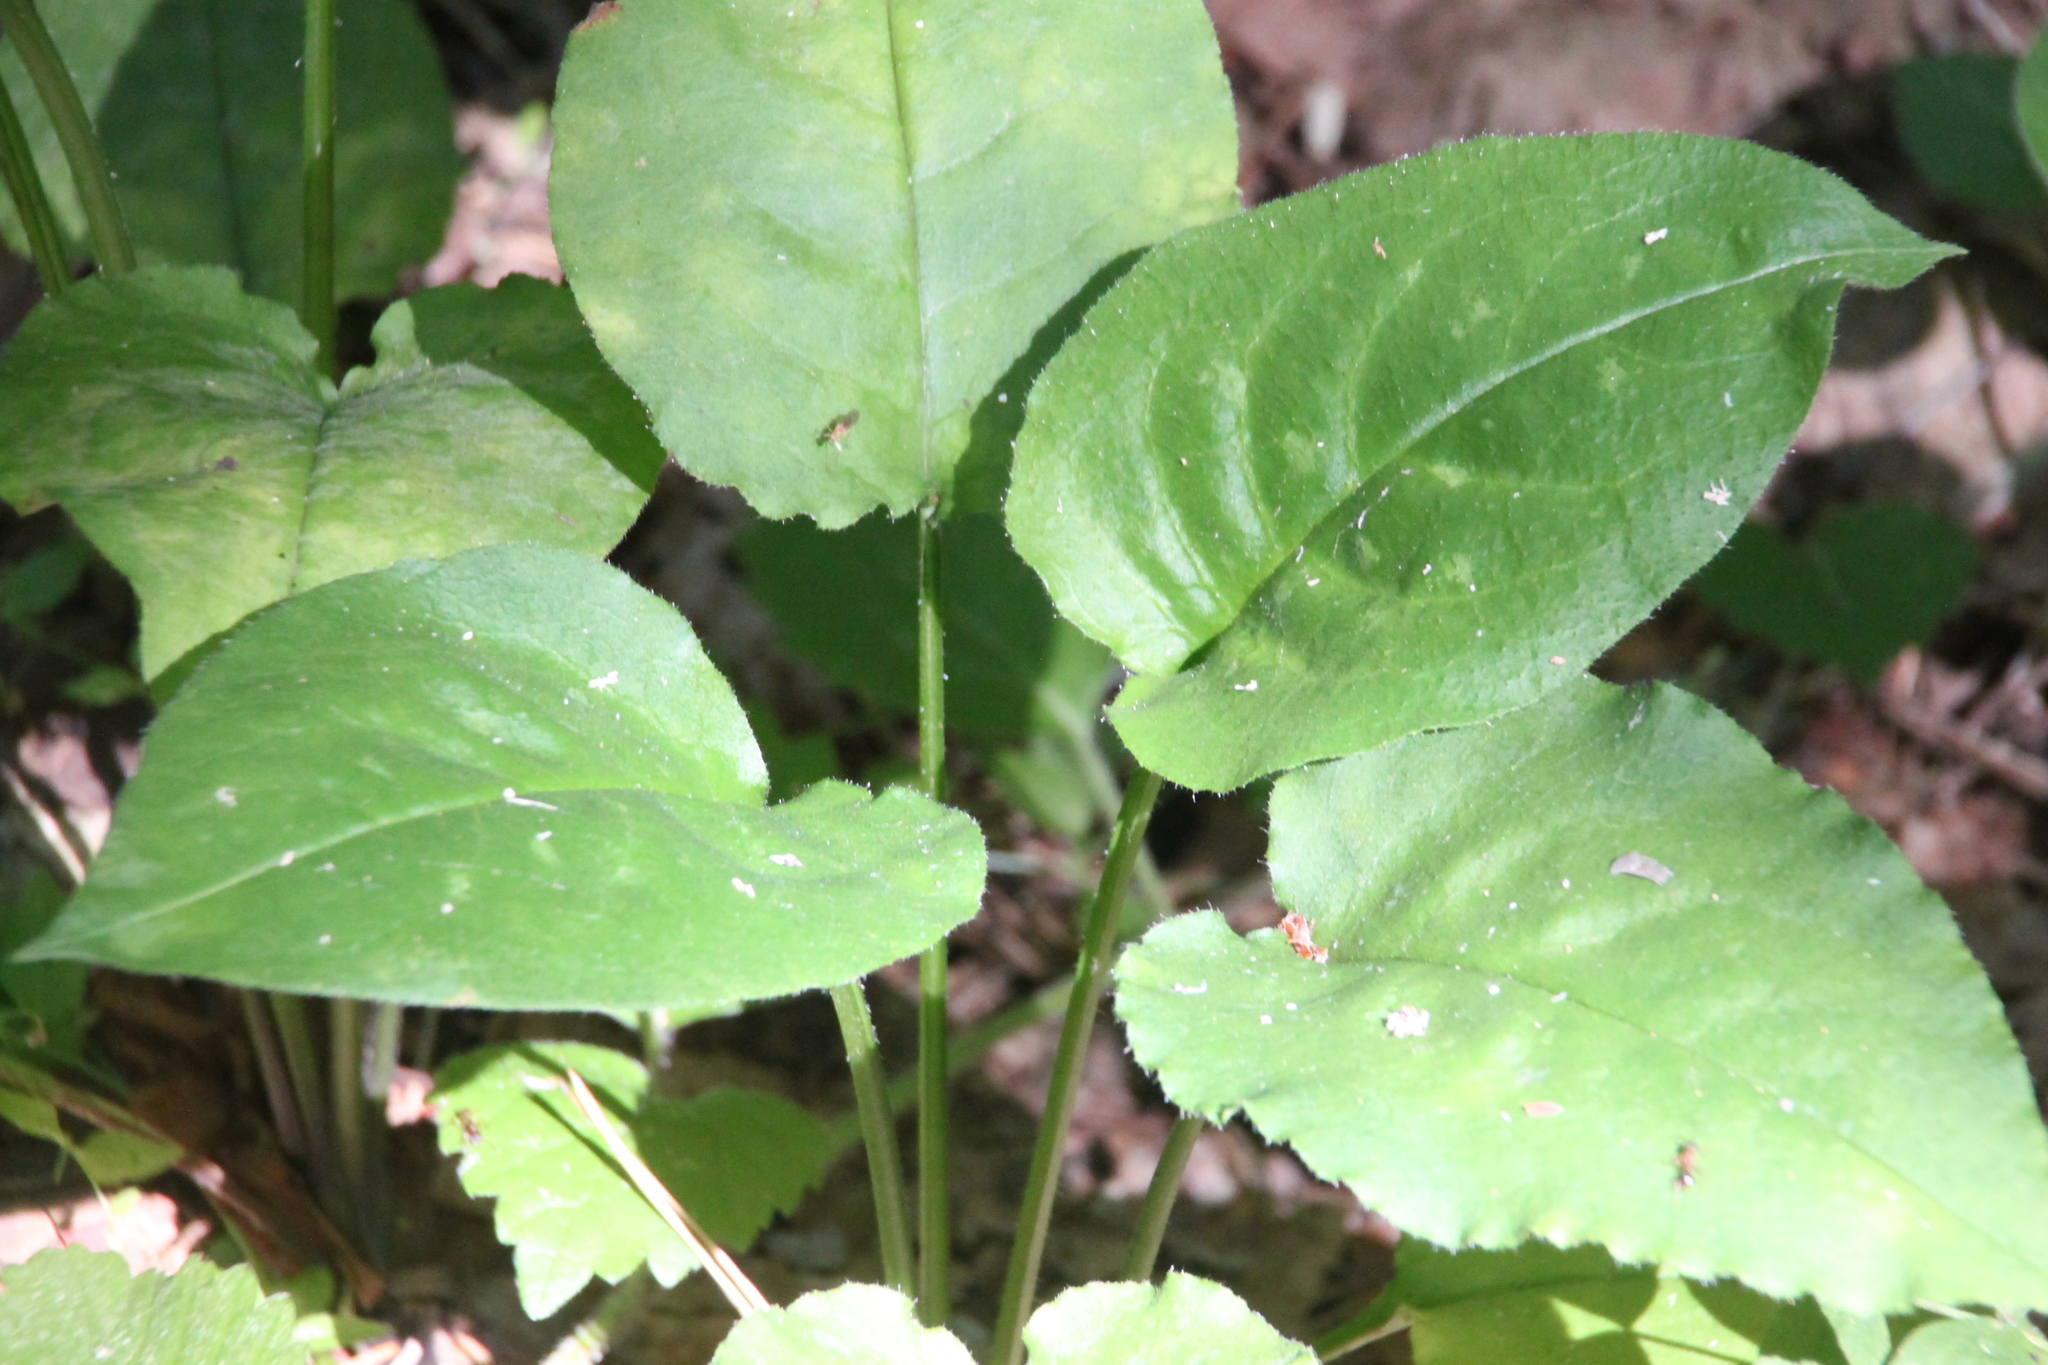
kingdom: Plantae
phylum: Tracheophyta
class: Magnoliopsida
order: Boraginales
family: Boraginaceae
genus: Pulmonaria
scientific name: Pulmonaria obscura
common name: Suffolk lungwort
